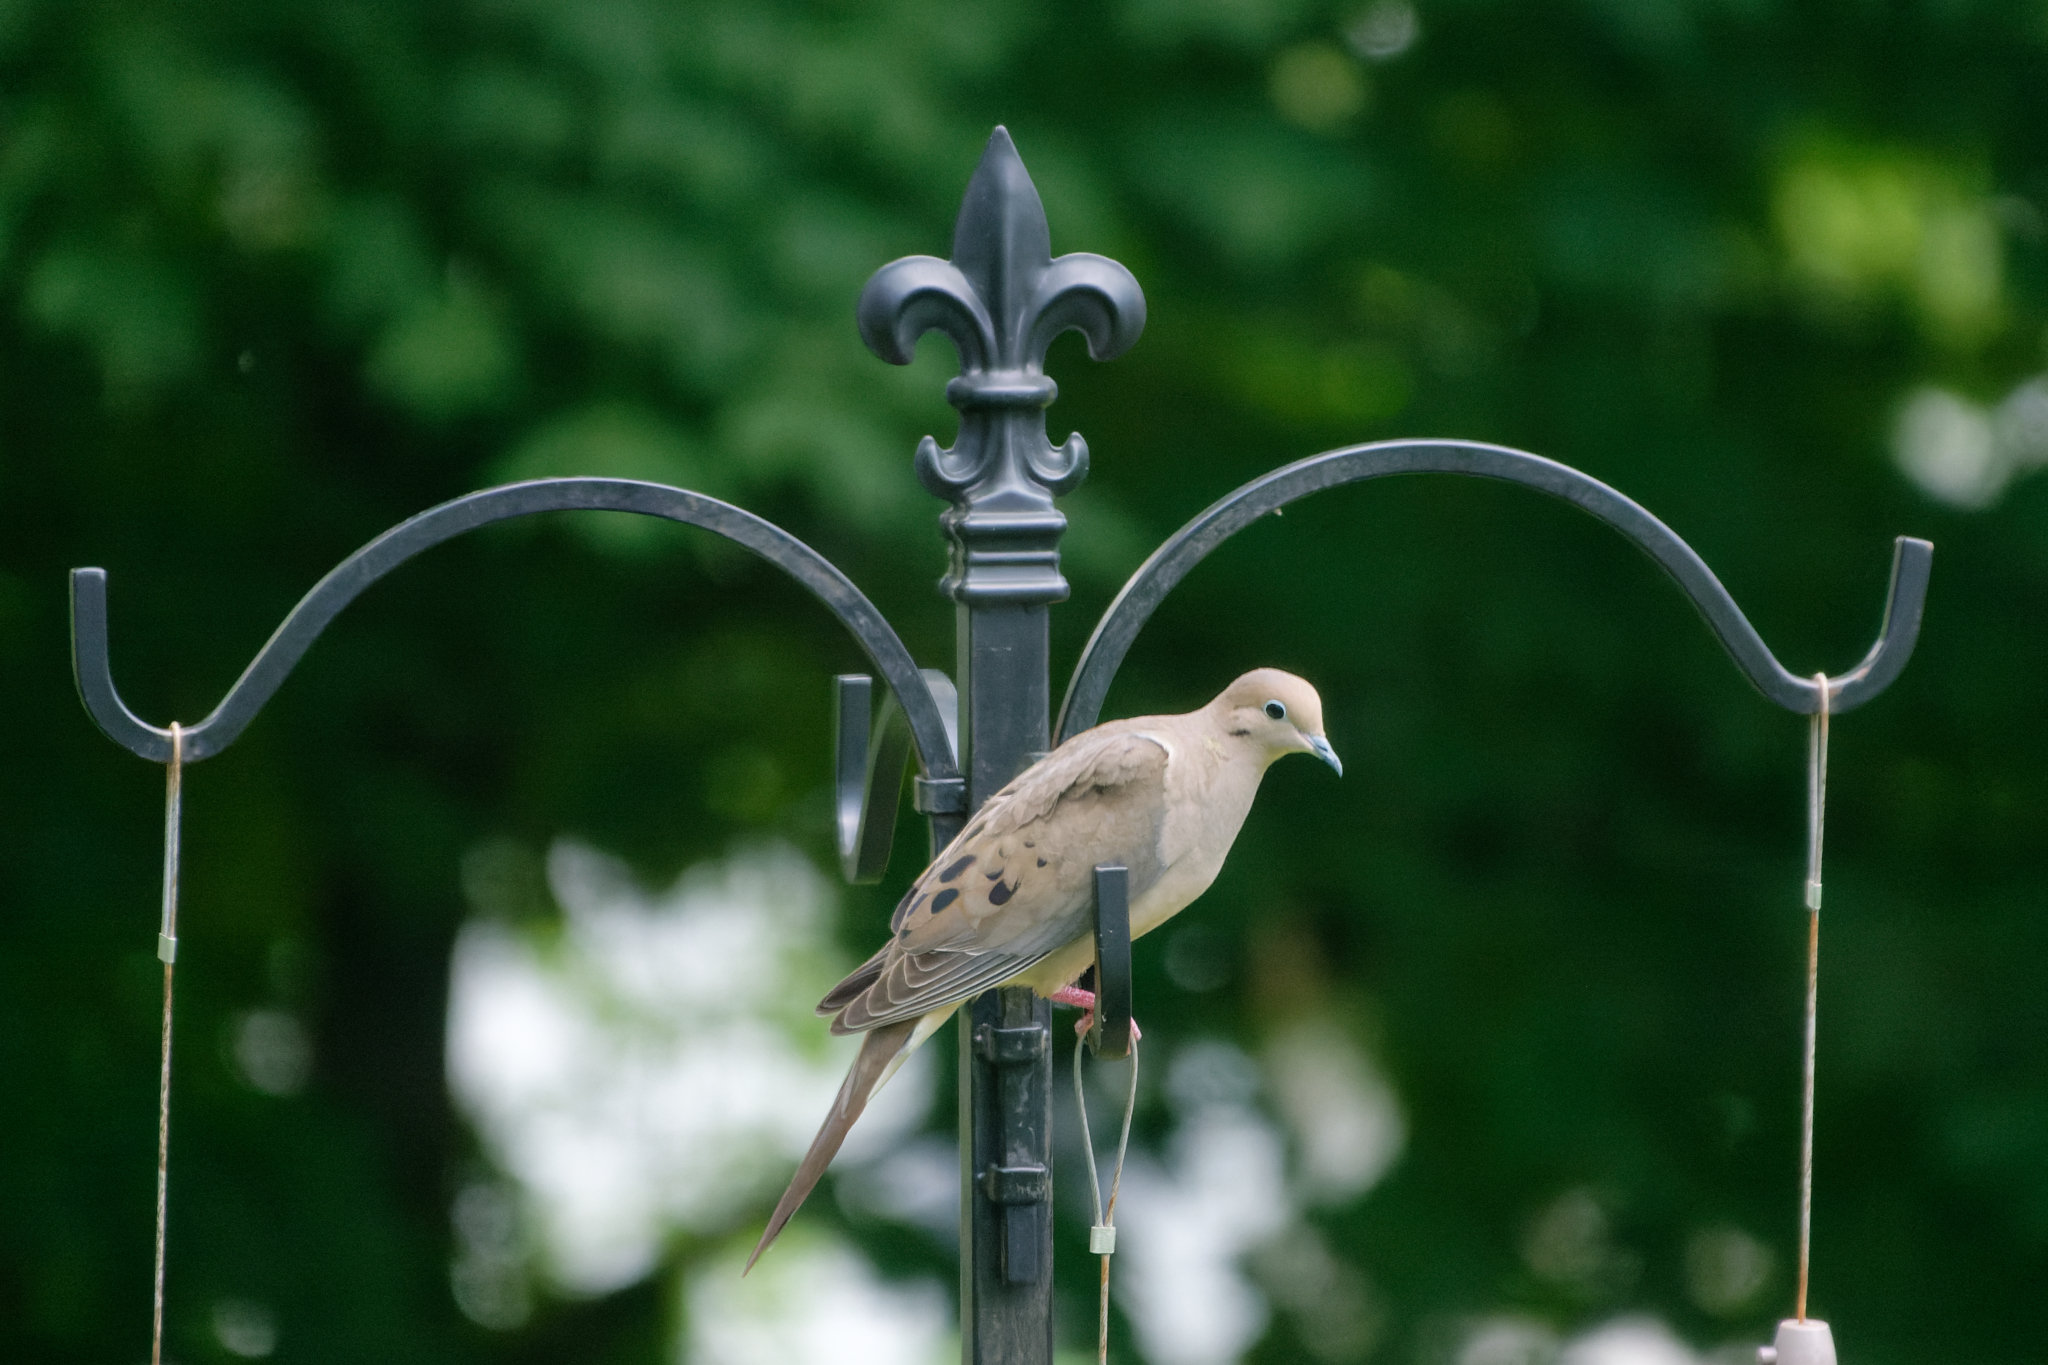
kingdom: Animalia
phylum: Chordata
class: Aves
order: Columbiformes
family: Columbidae
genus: Zenaida
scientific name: Zenaida macroura
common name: Mourning dove
